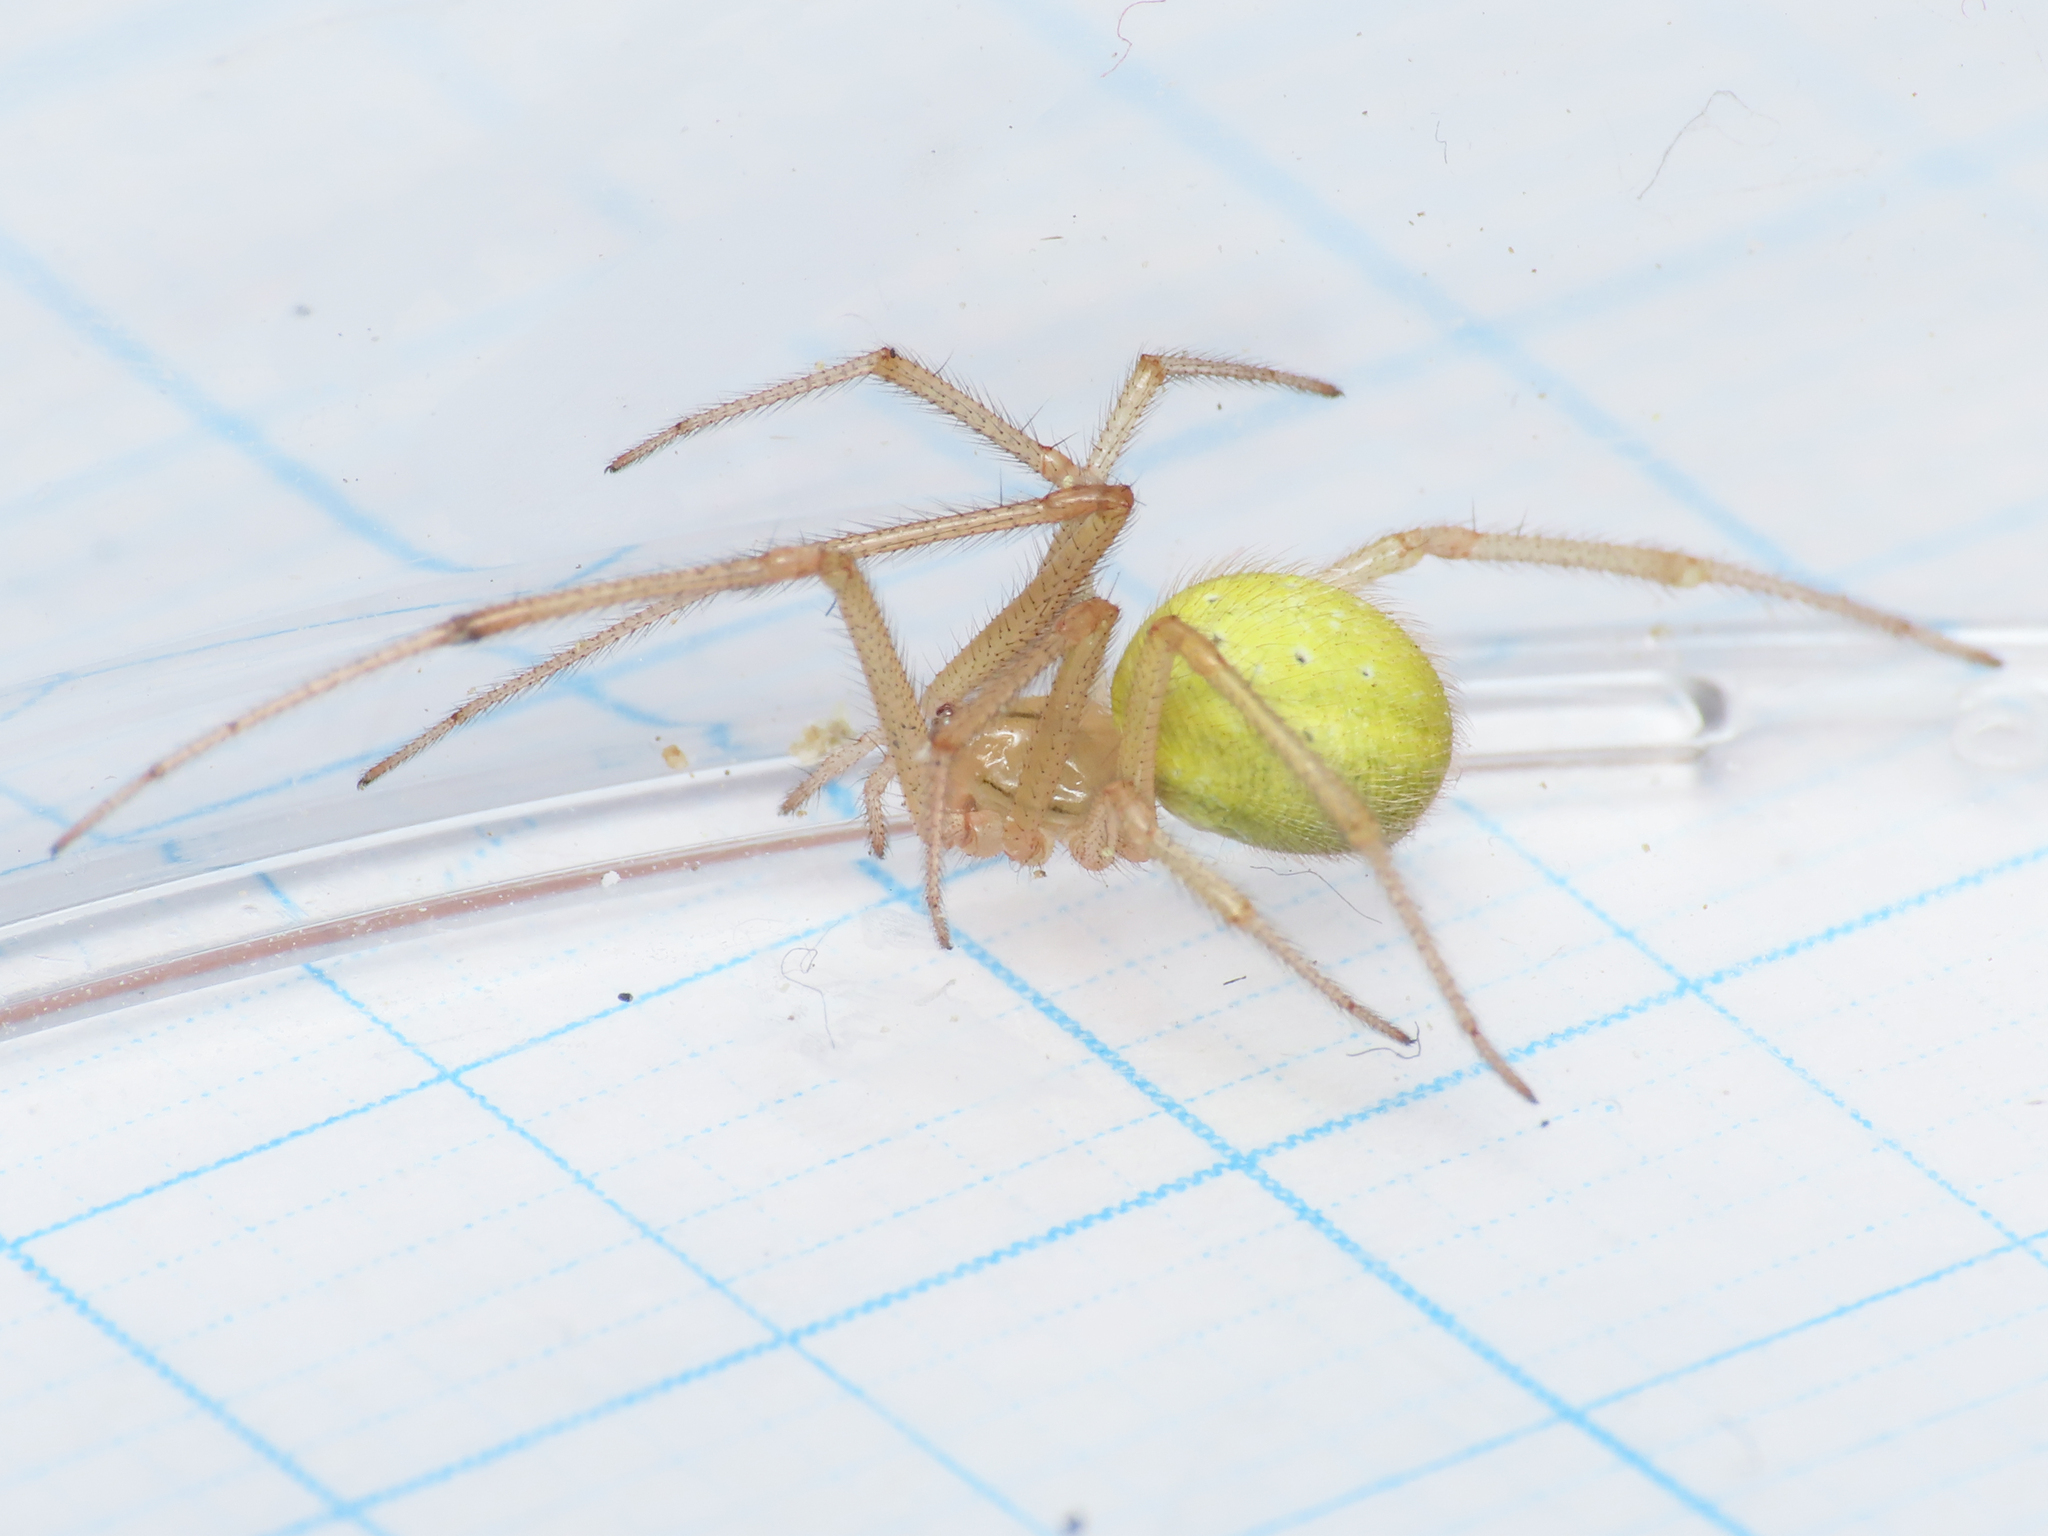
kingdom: Animalia
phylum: Arthropoda
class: Arachnida
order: Araneae
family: Theridiidae
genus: Enoplognatha
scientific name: Enoplognatha afrodite
